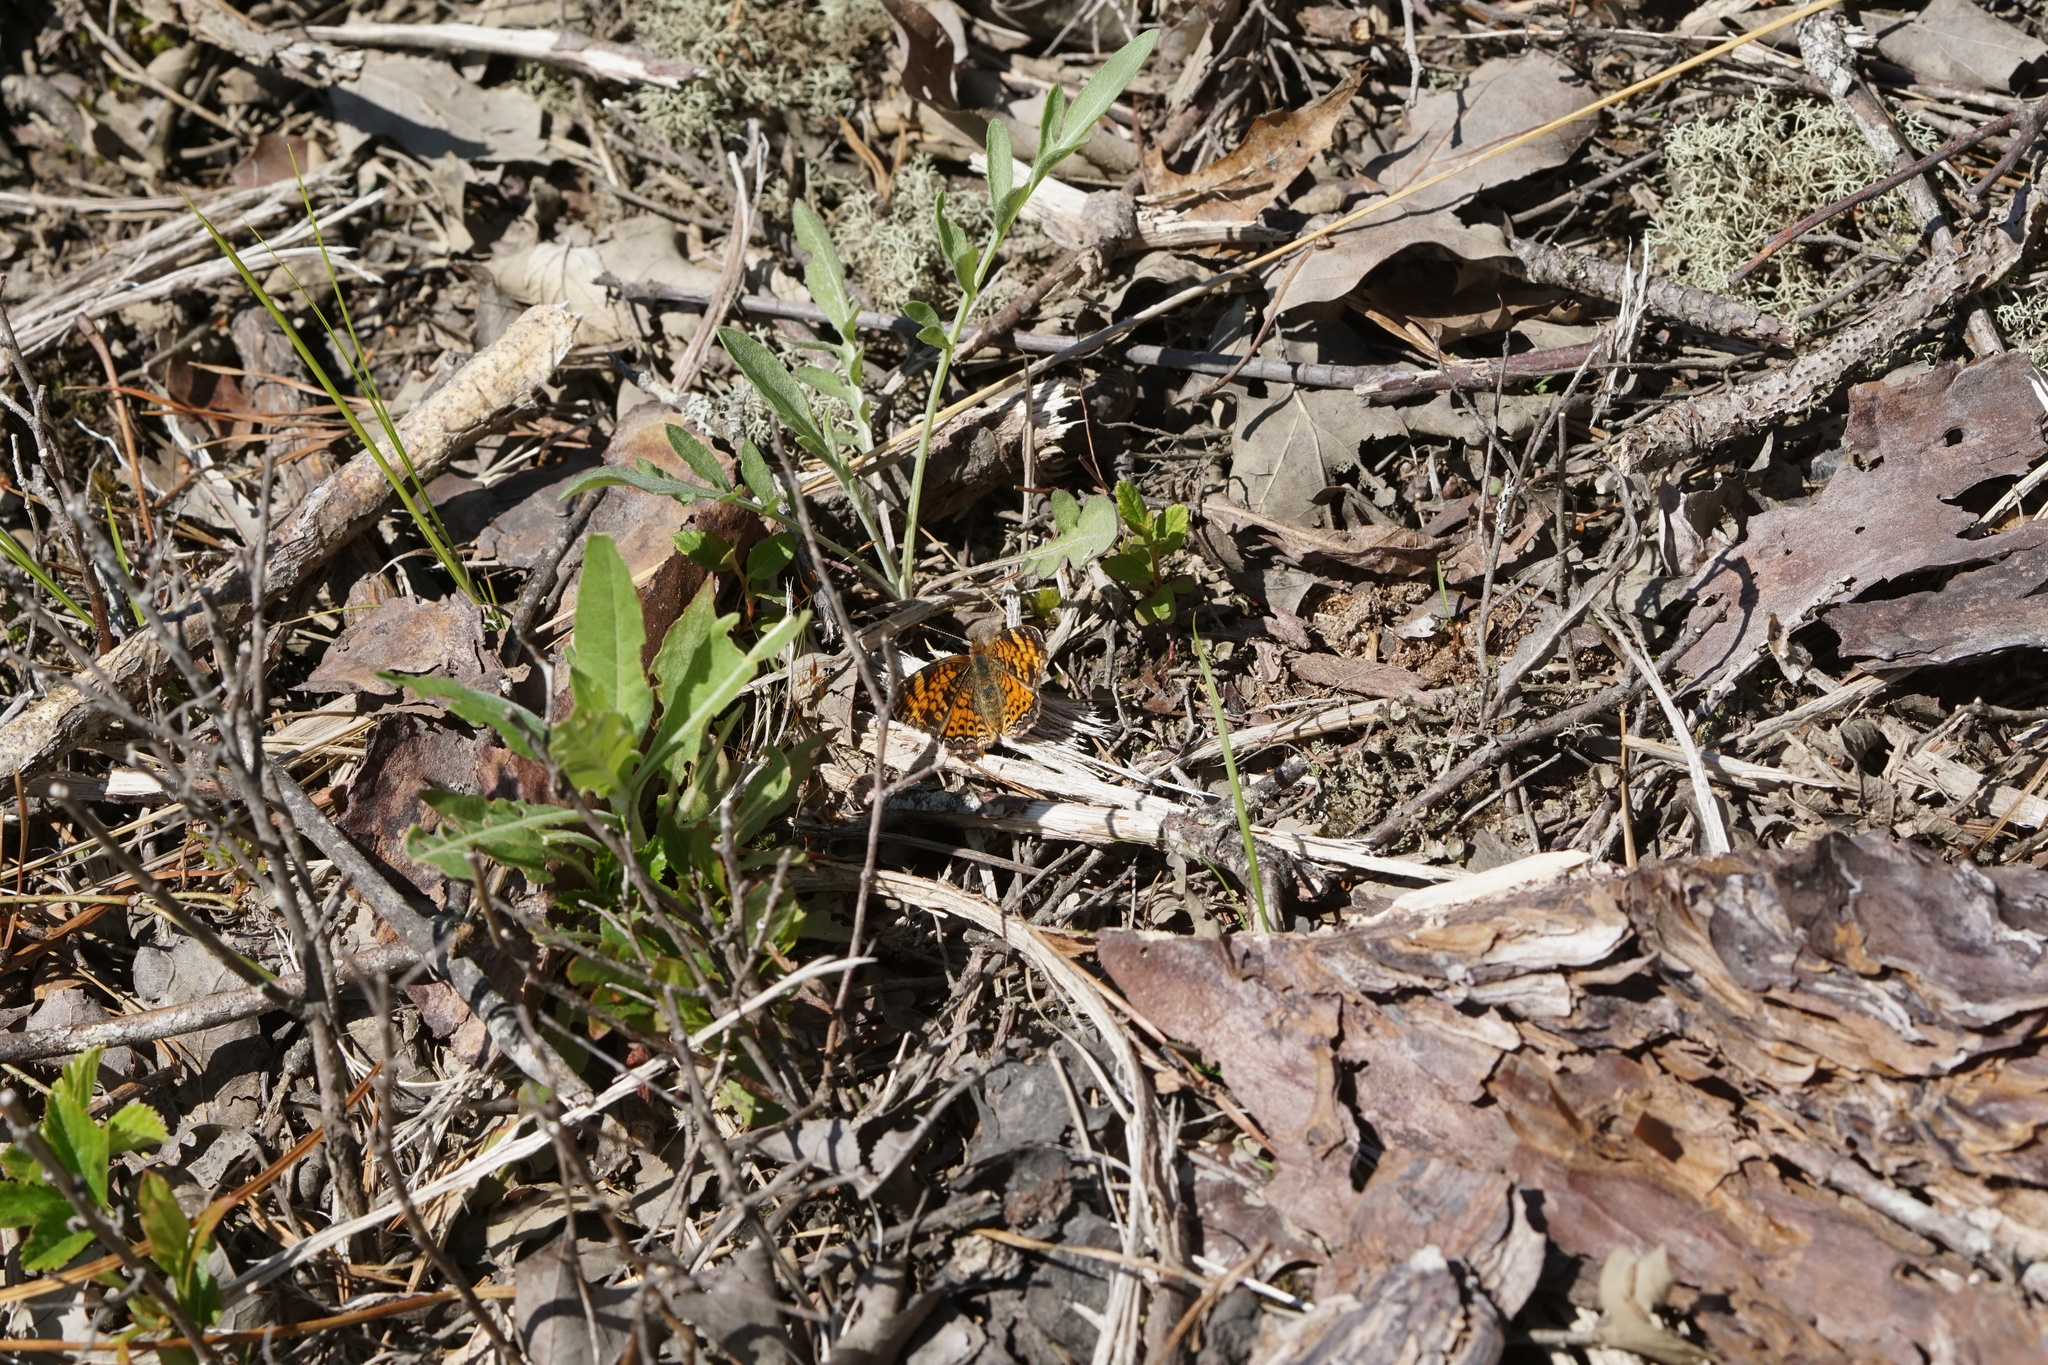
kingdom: Animalia
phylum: Arthropoda
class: Insecta
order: Lepidoptera
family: Nymphalidae
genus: Phyciodes
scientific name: Phyciodes tharos
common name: Pearl crescent
